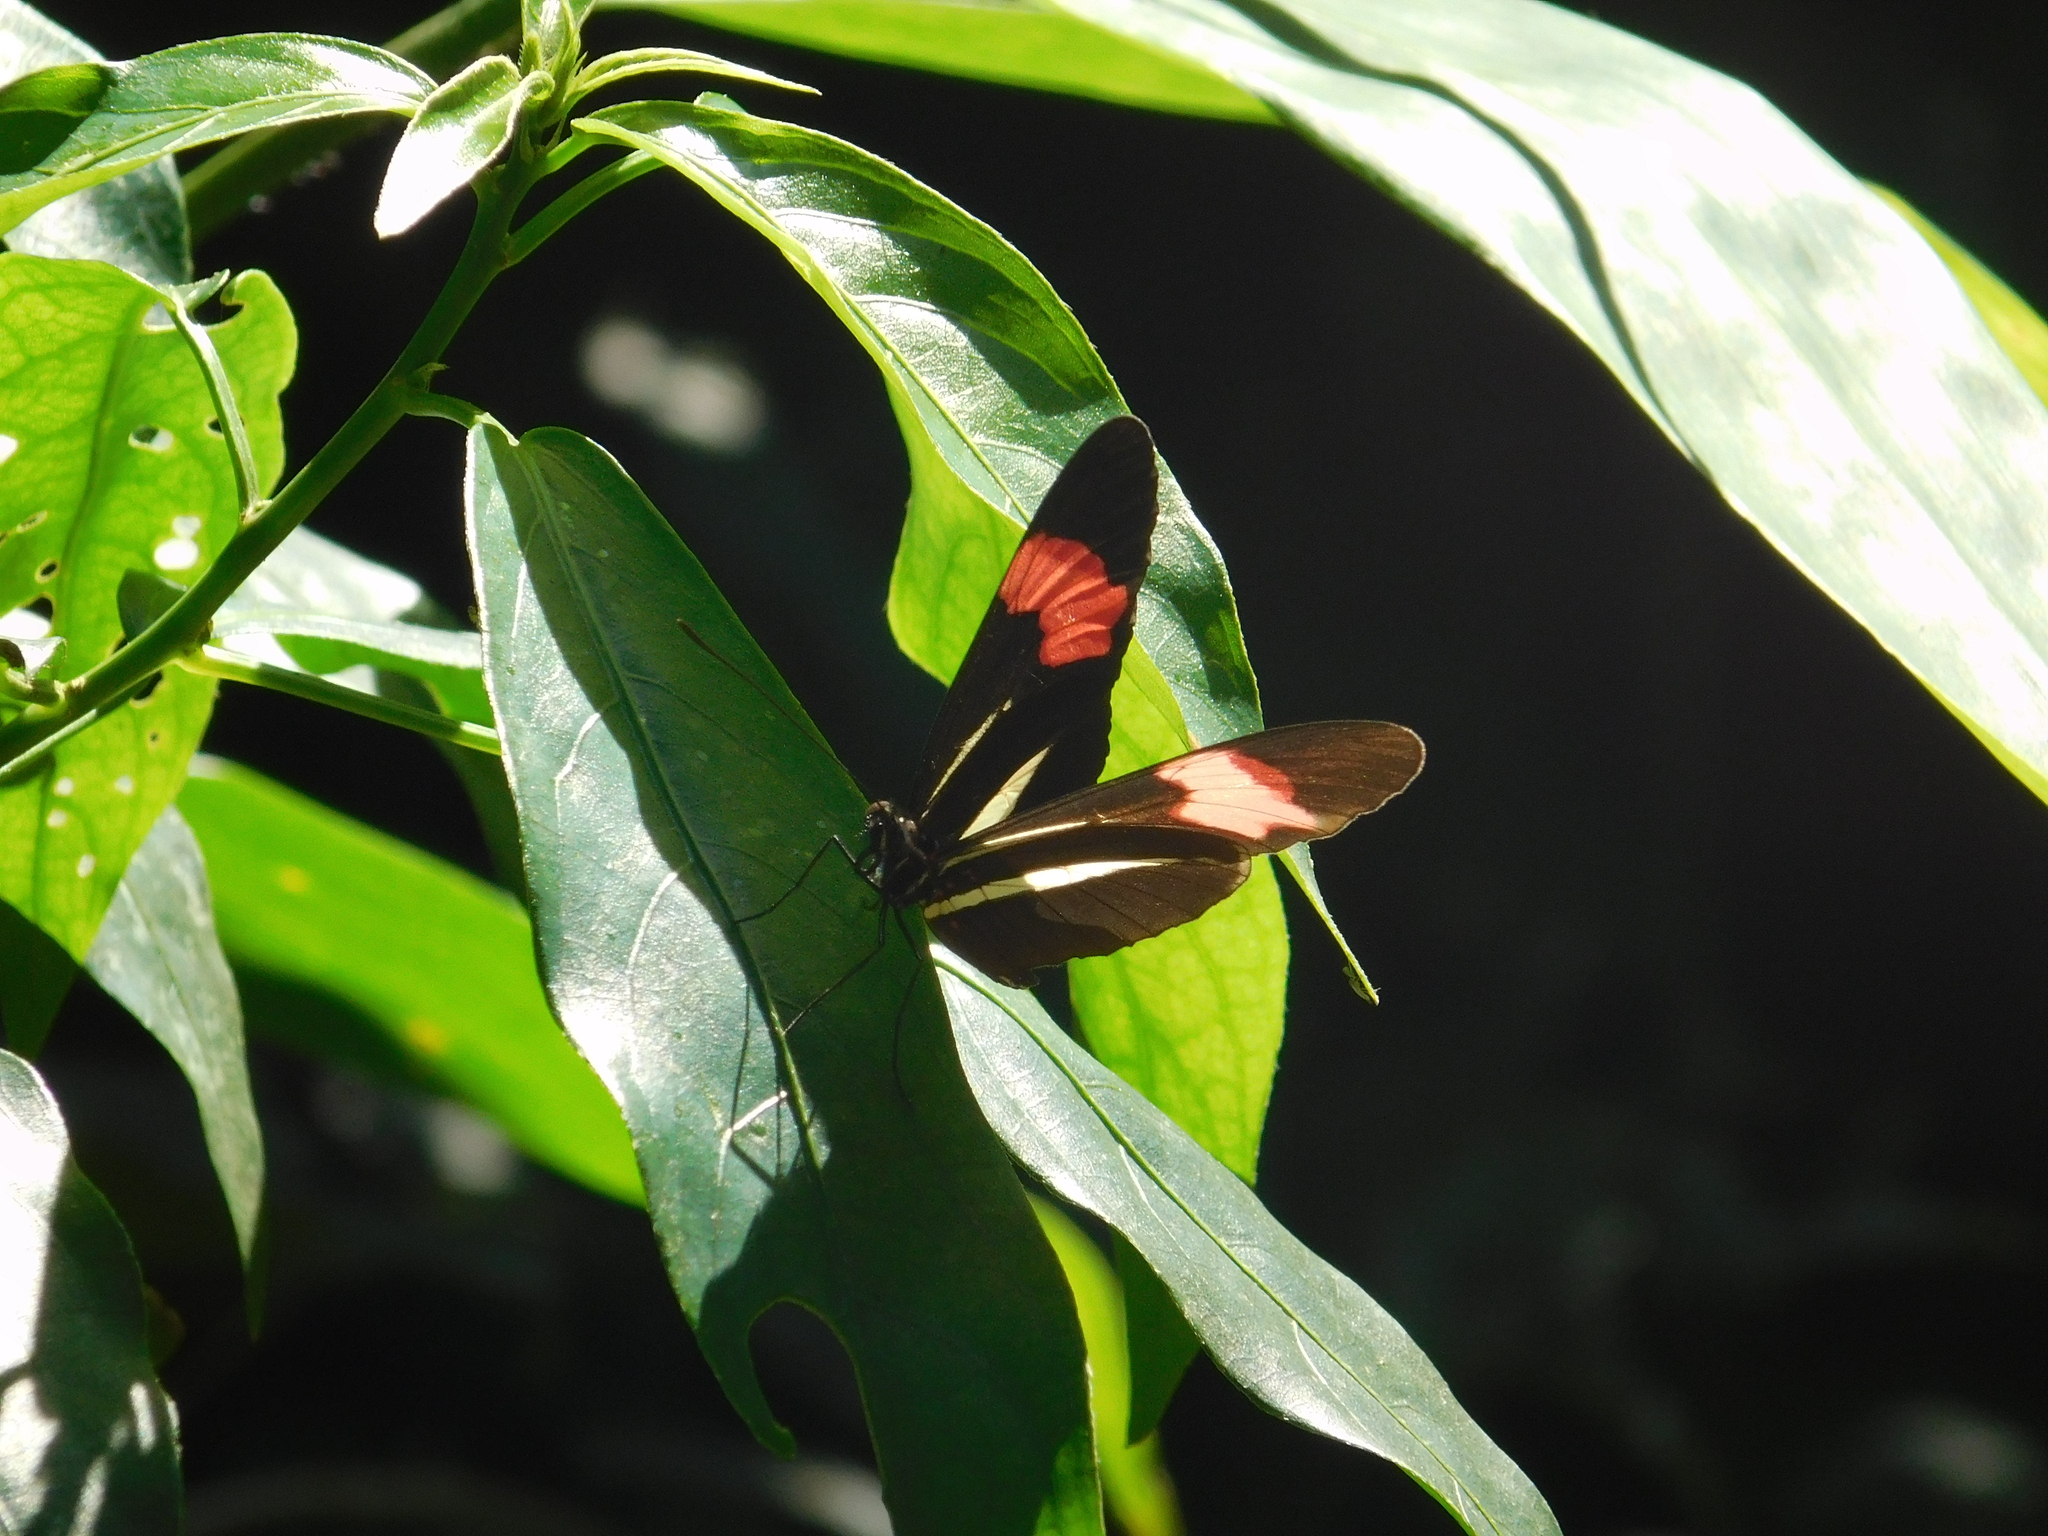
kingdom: Animalia
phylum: Arthropoda
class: Insecta
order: Lepidoptera
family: Nymphalidae
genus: Heliconius
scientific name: Heliconius erato
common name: Common patch longwing
